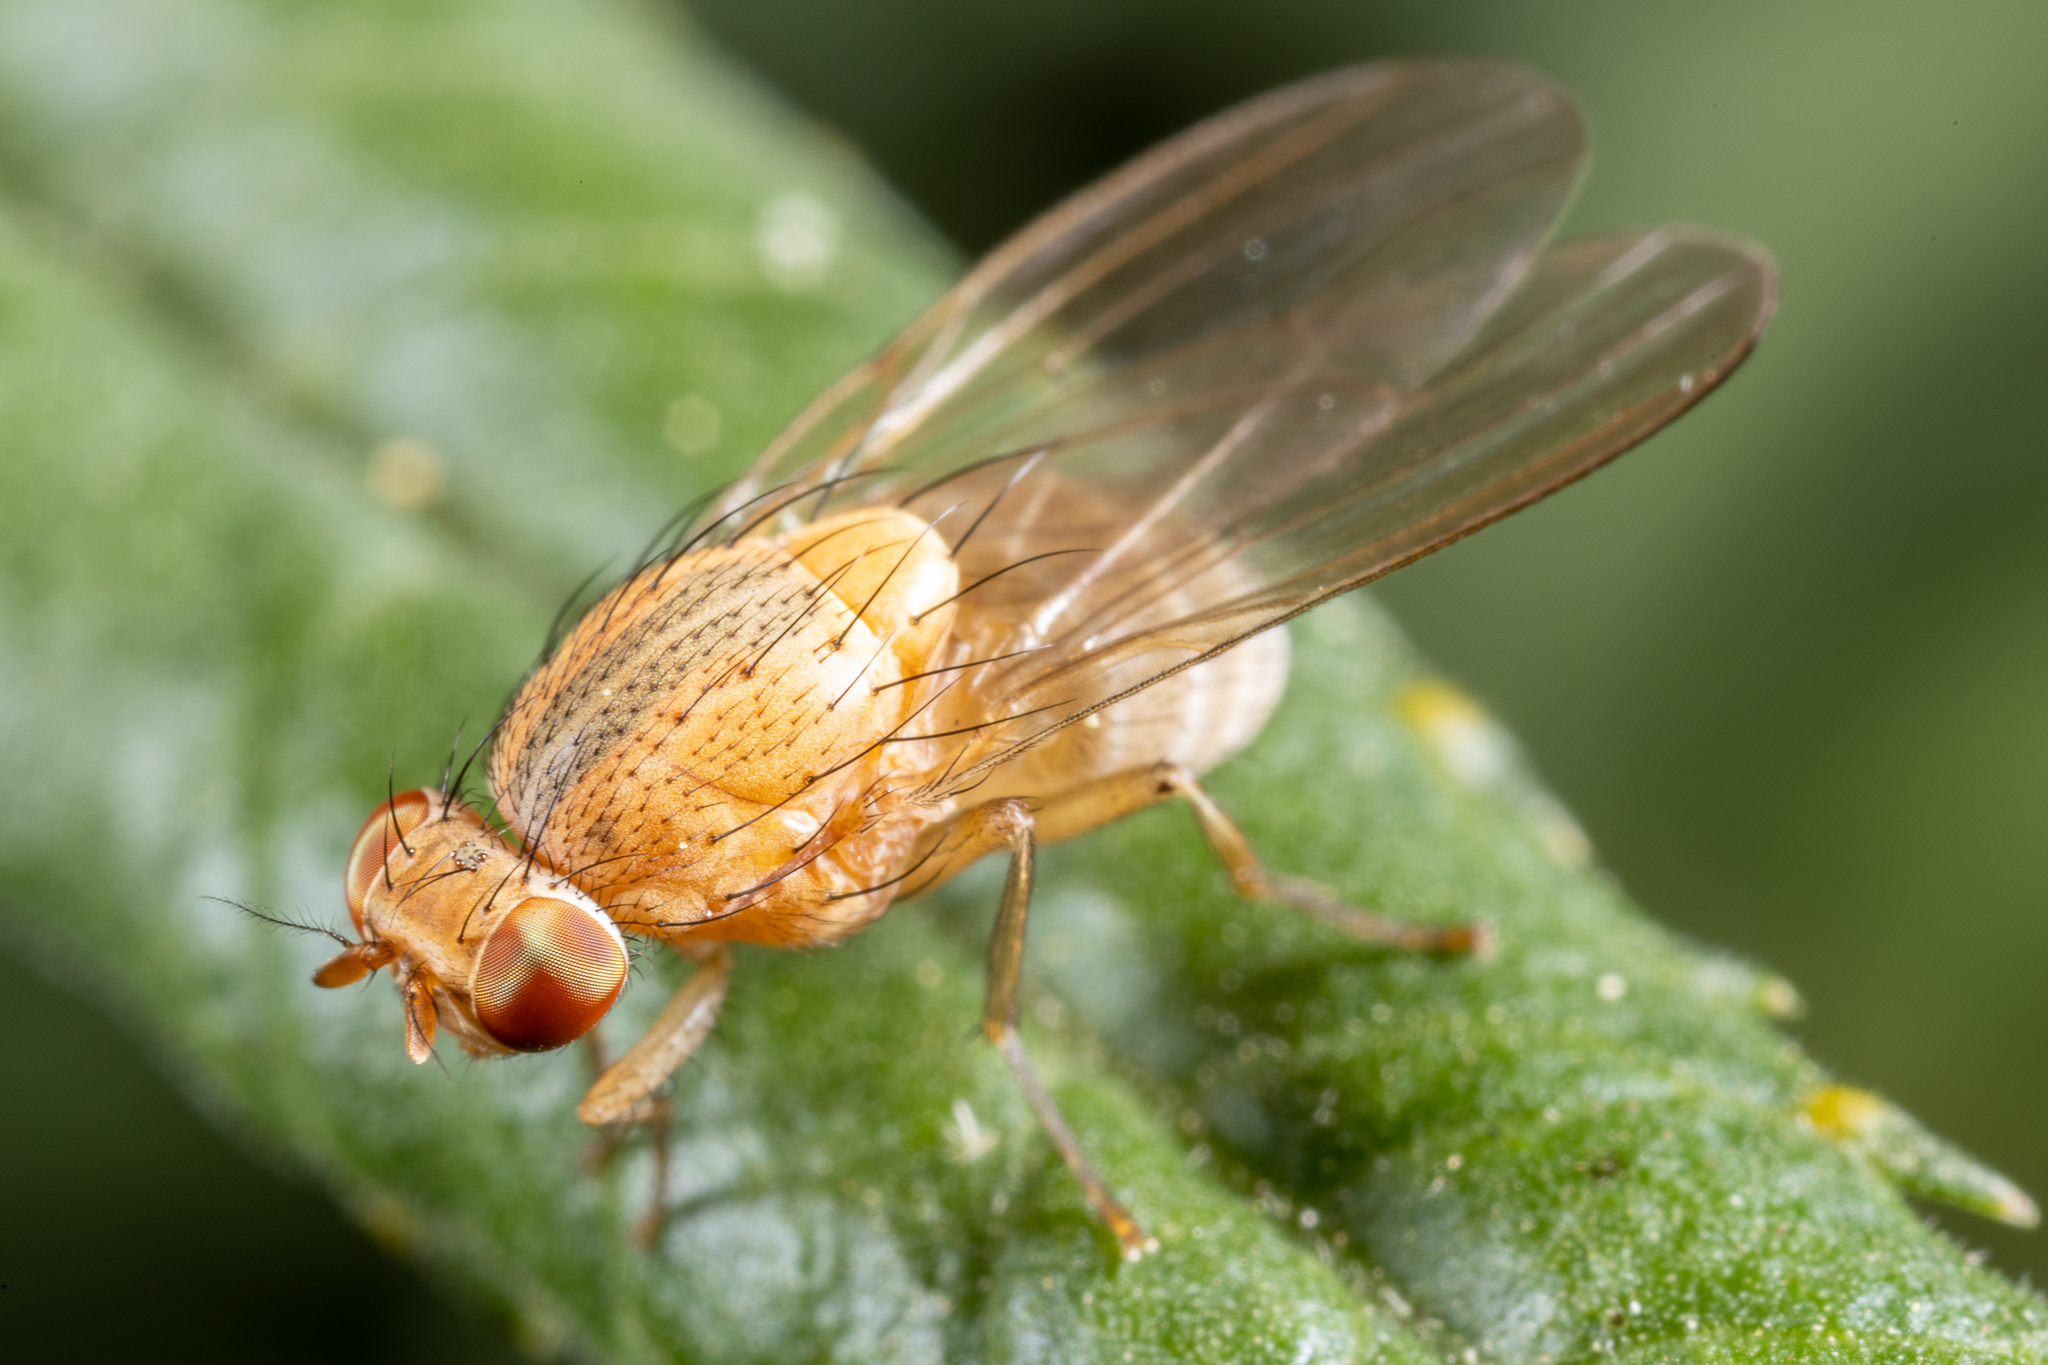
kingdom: Animalia
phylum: Arthropoda
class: Insecta
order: Diptera
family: Lauxaniidae
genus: Minettia
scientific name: Minettia flaveola
